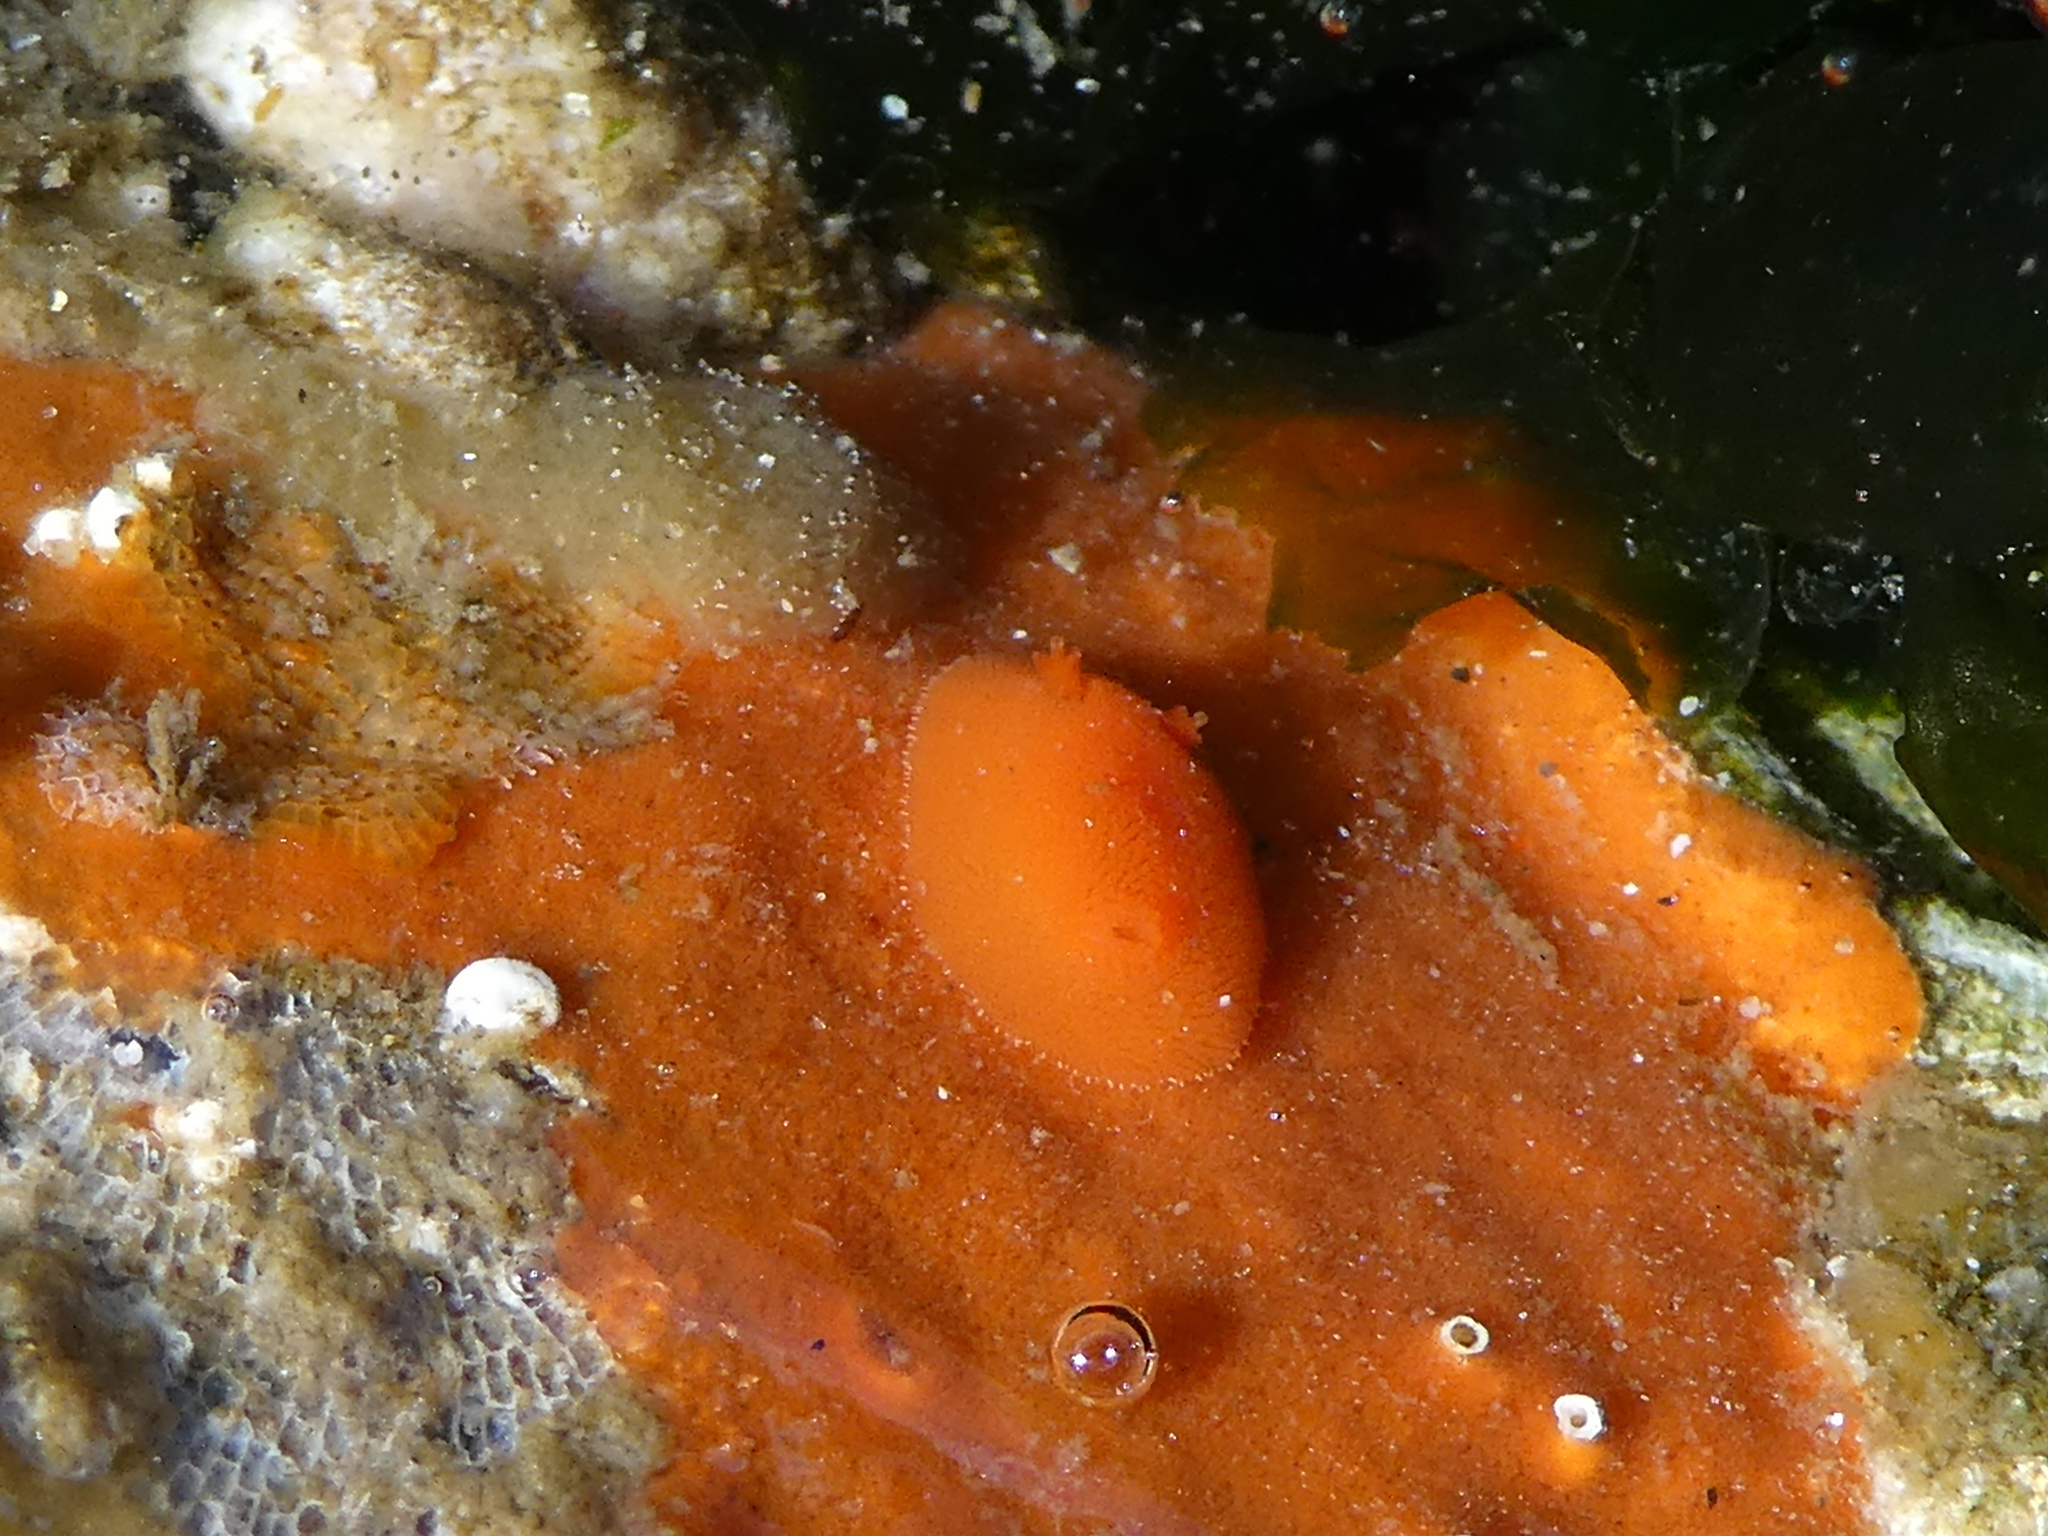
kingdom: Animalia
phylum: Mollusca
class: Gastropoda
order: Nudibranchia
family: Discodorididae
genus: Rostanga
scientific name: Rostanga pulchra
